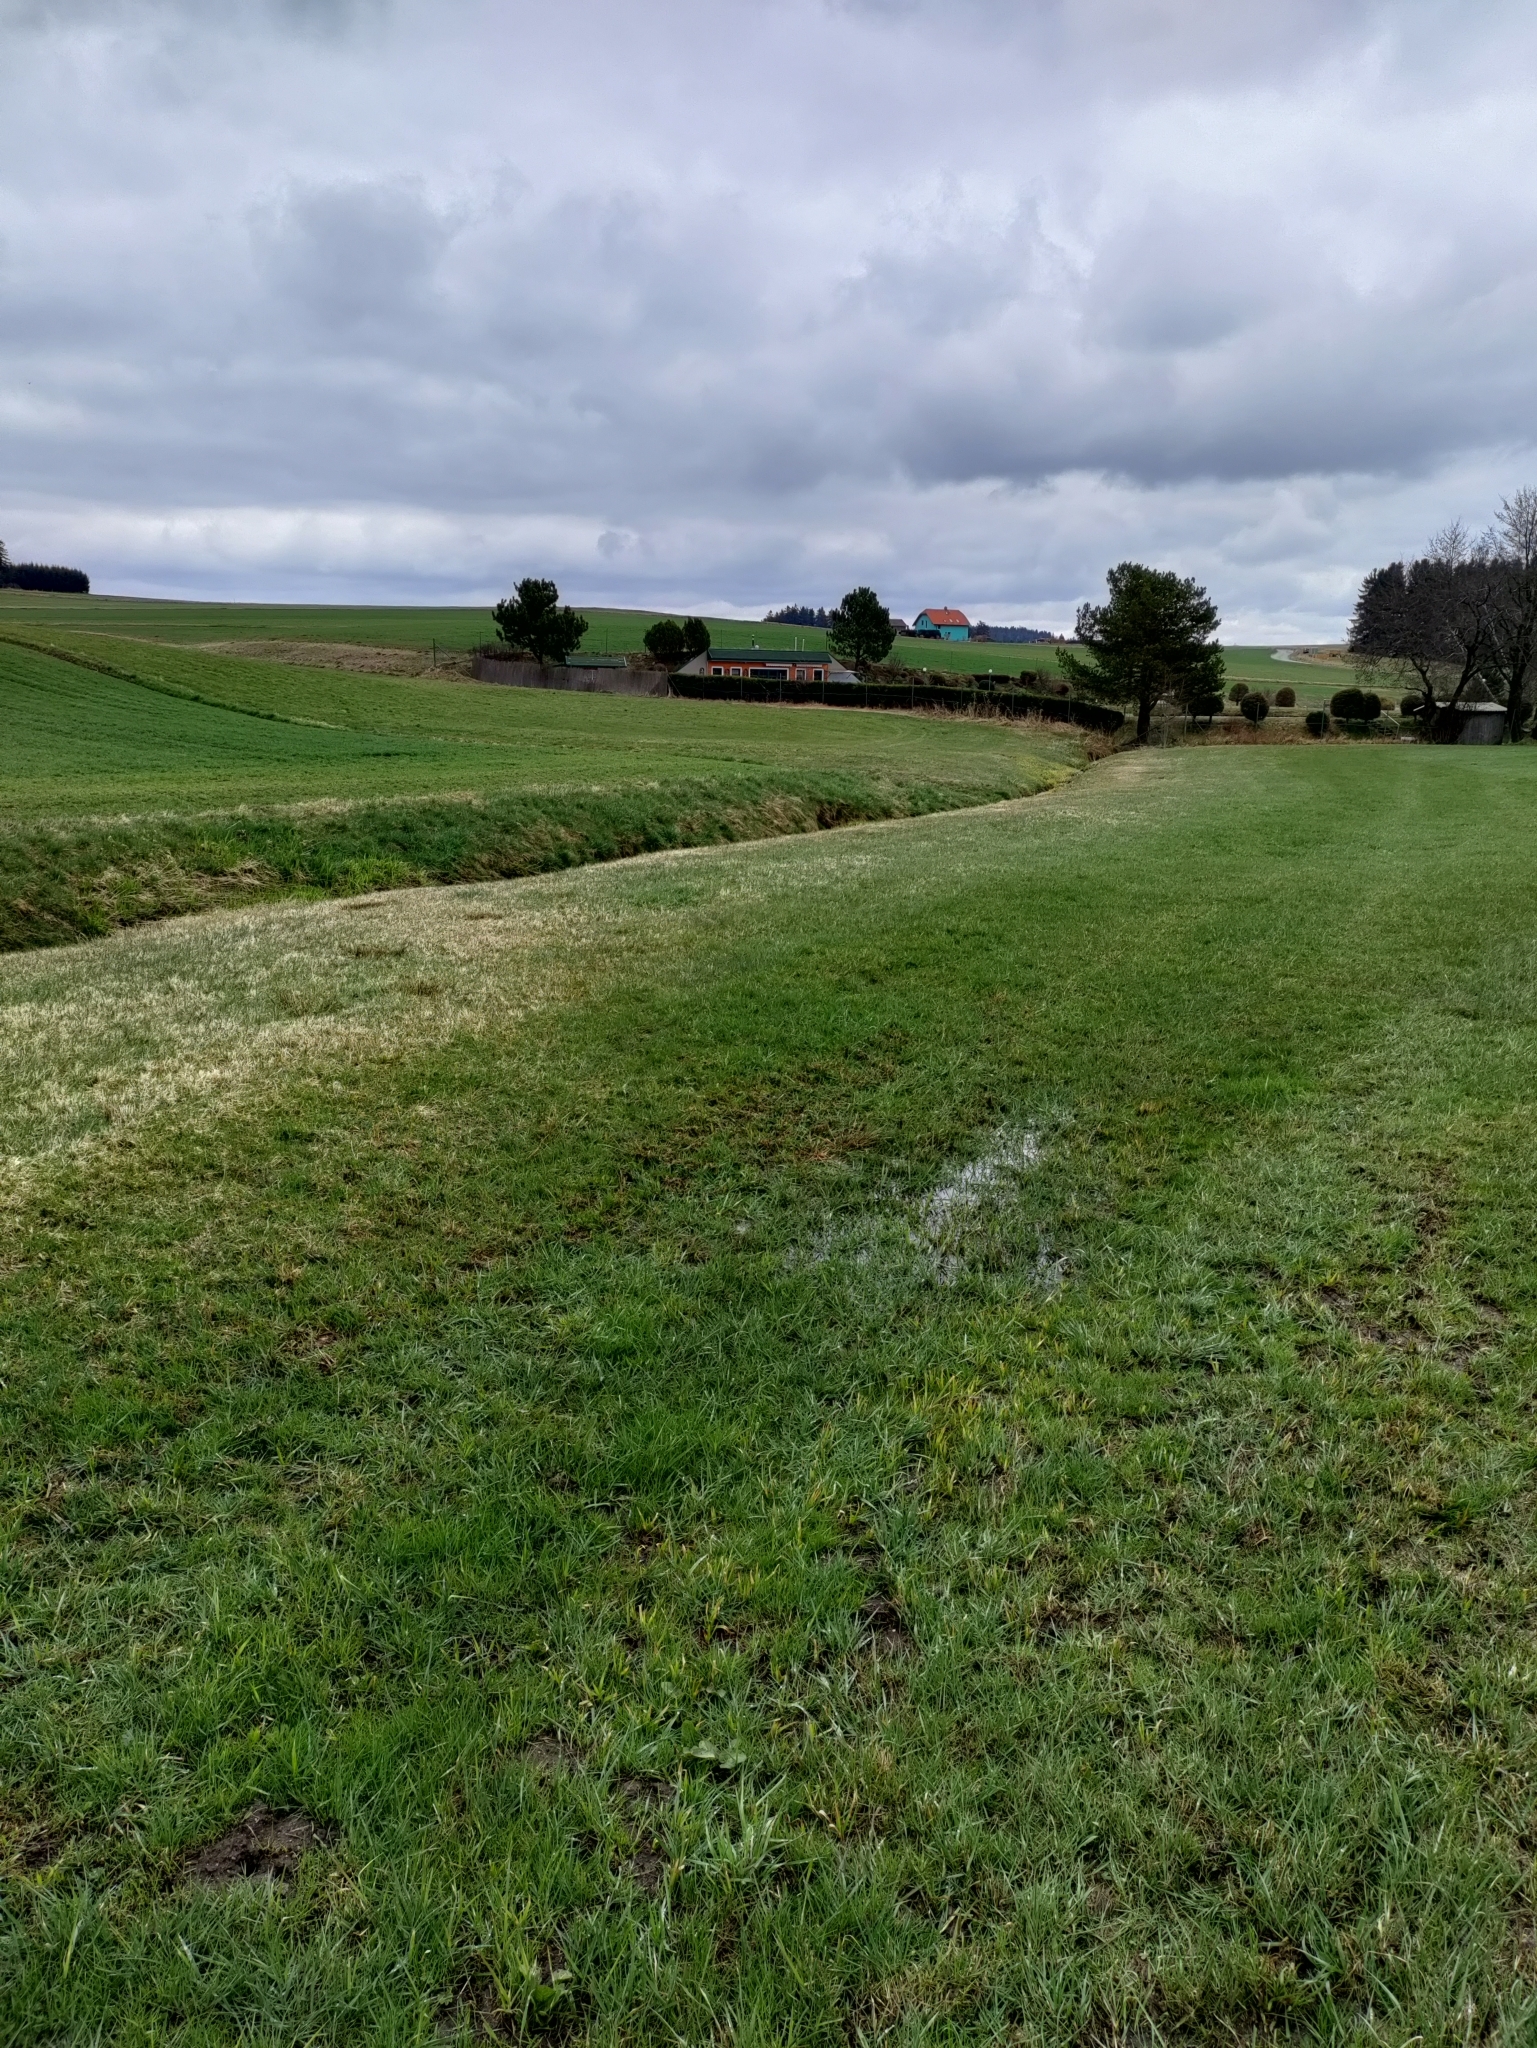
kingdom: Plantae
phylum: Tracheophyta
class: Magnoliopsida
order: Ranunculales
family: Ranunculaceae
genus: Ranunculus
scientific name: Ranunculus auricomus
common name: Goldilocks buttercup
